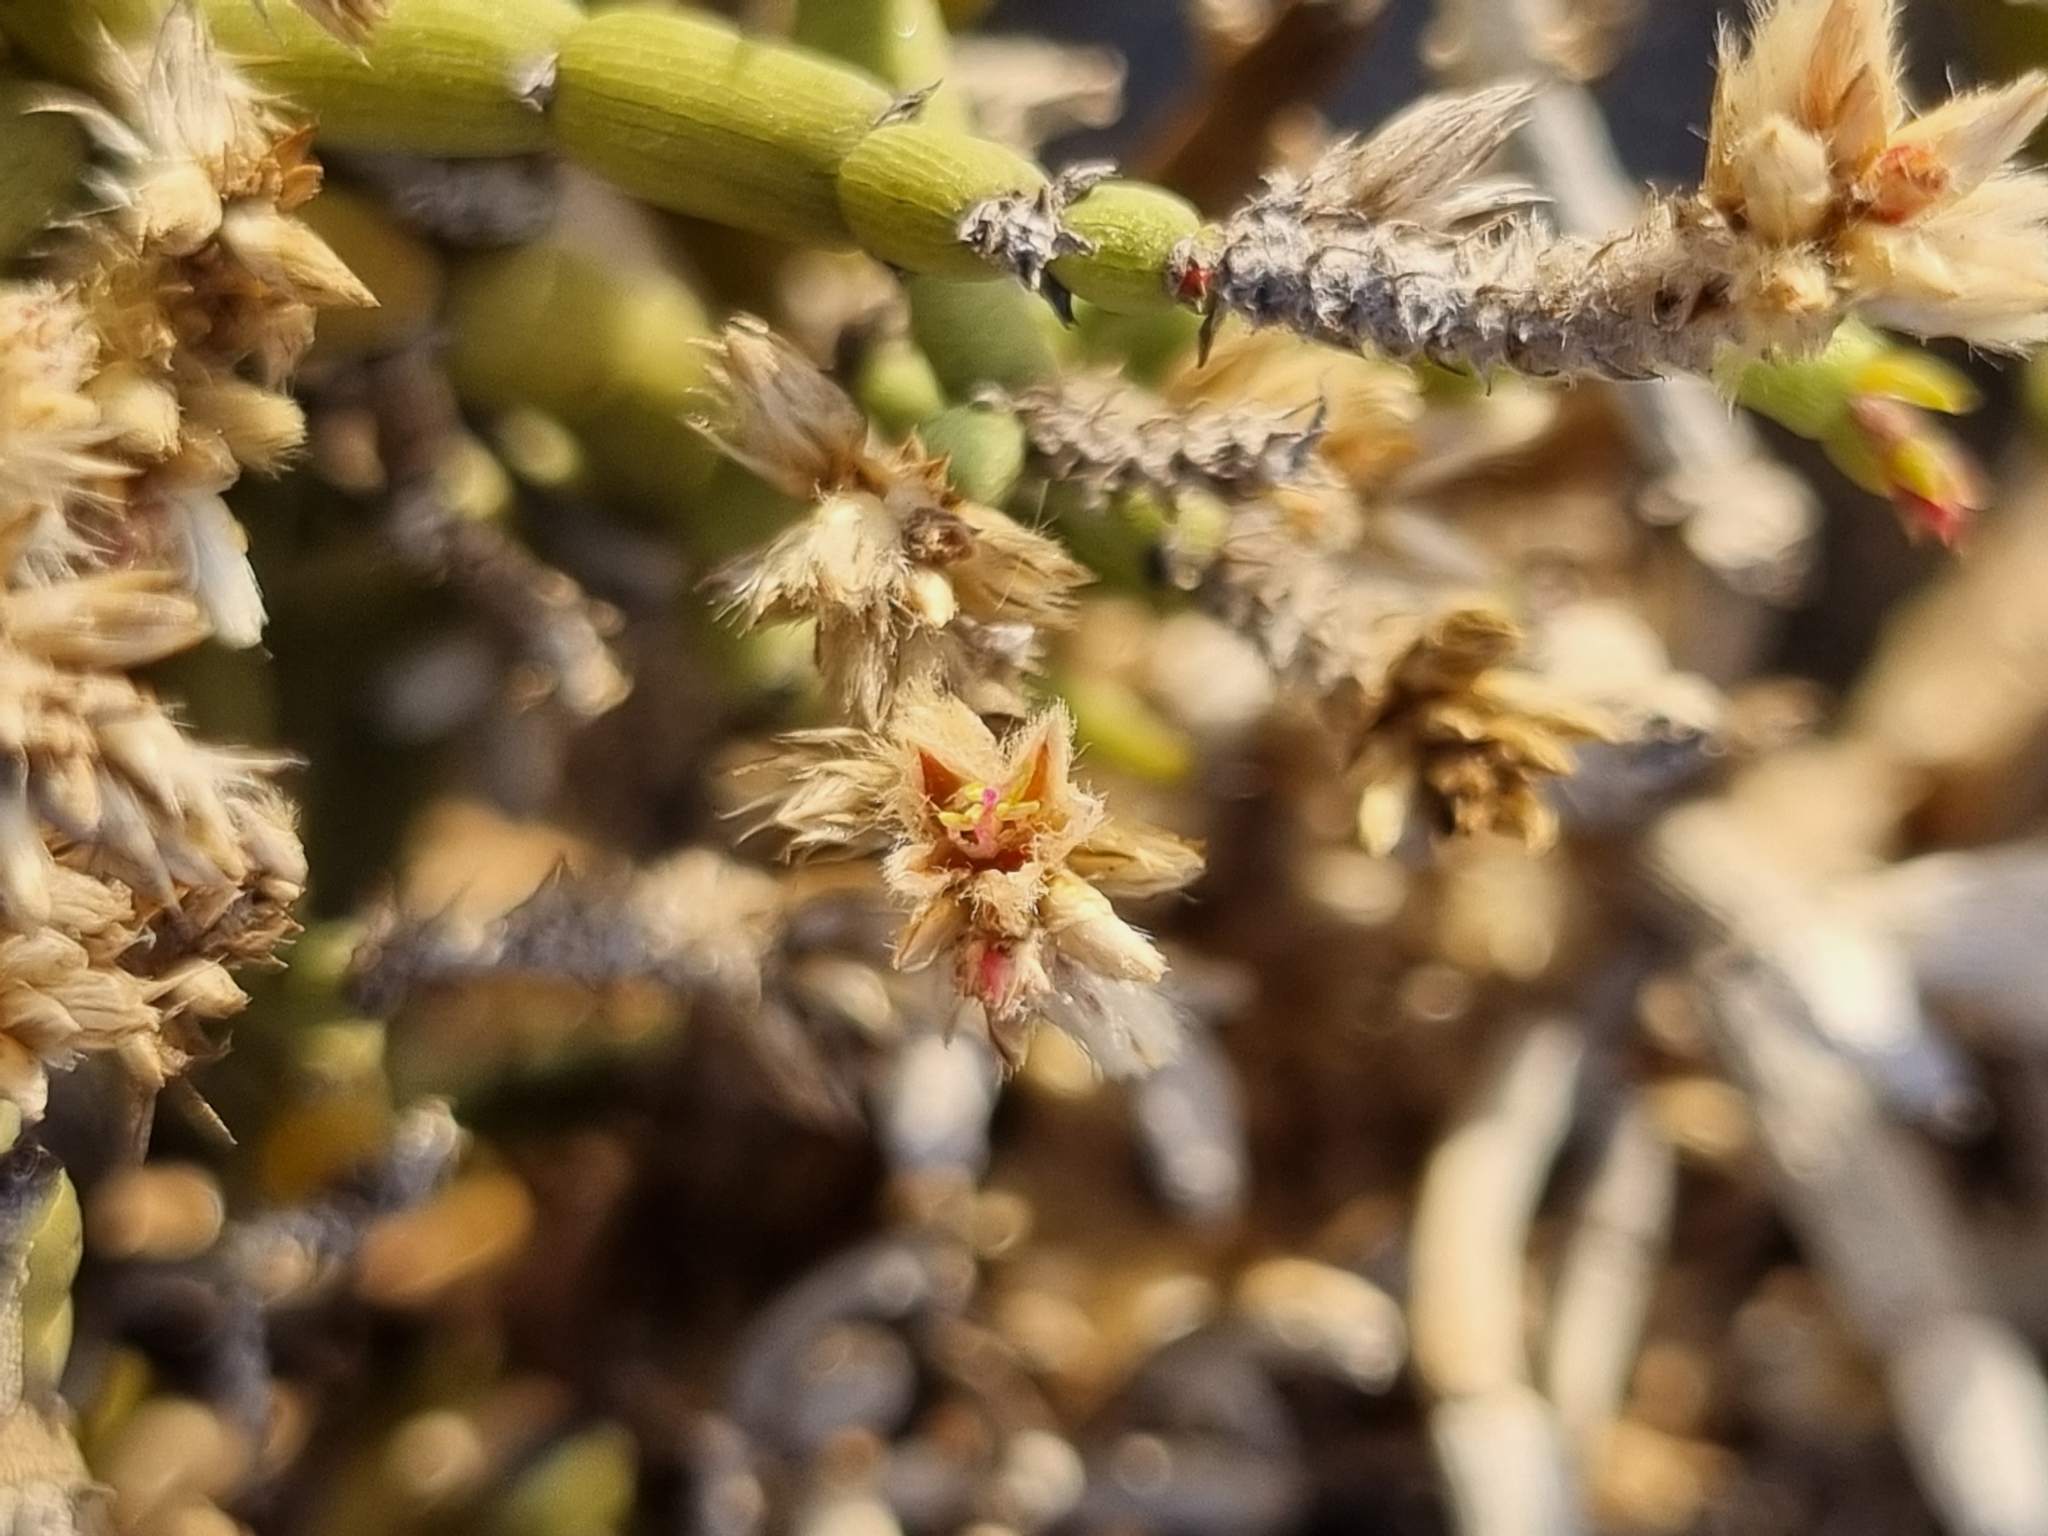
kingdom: Plantae
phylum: Tracheophyta
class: Magnoliopsida
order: Caryophyllales
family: Amaranthaceae
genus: Arthraerva
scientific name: Arthraerva leubnitziae
